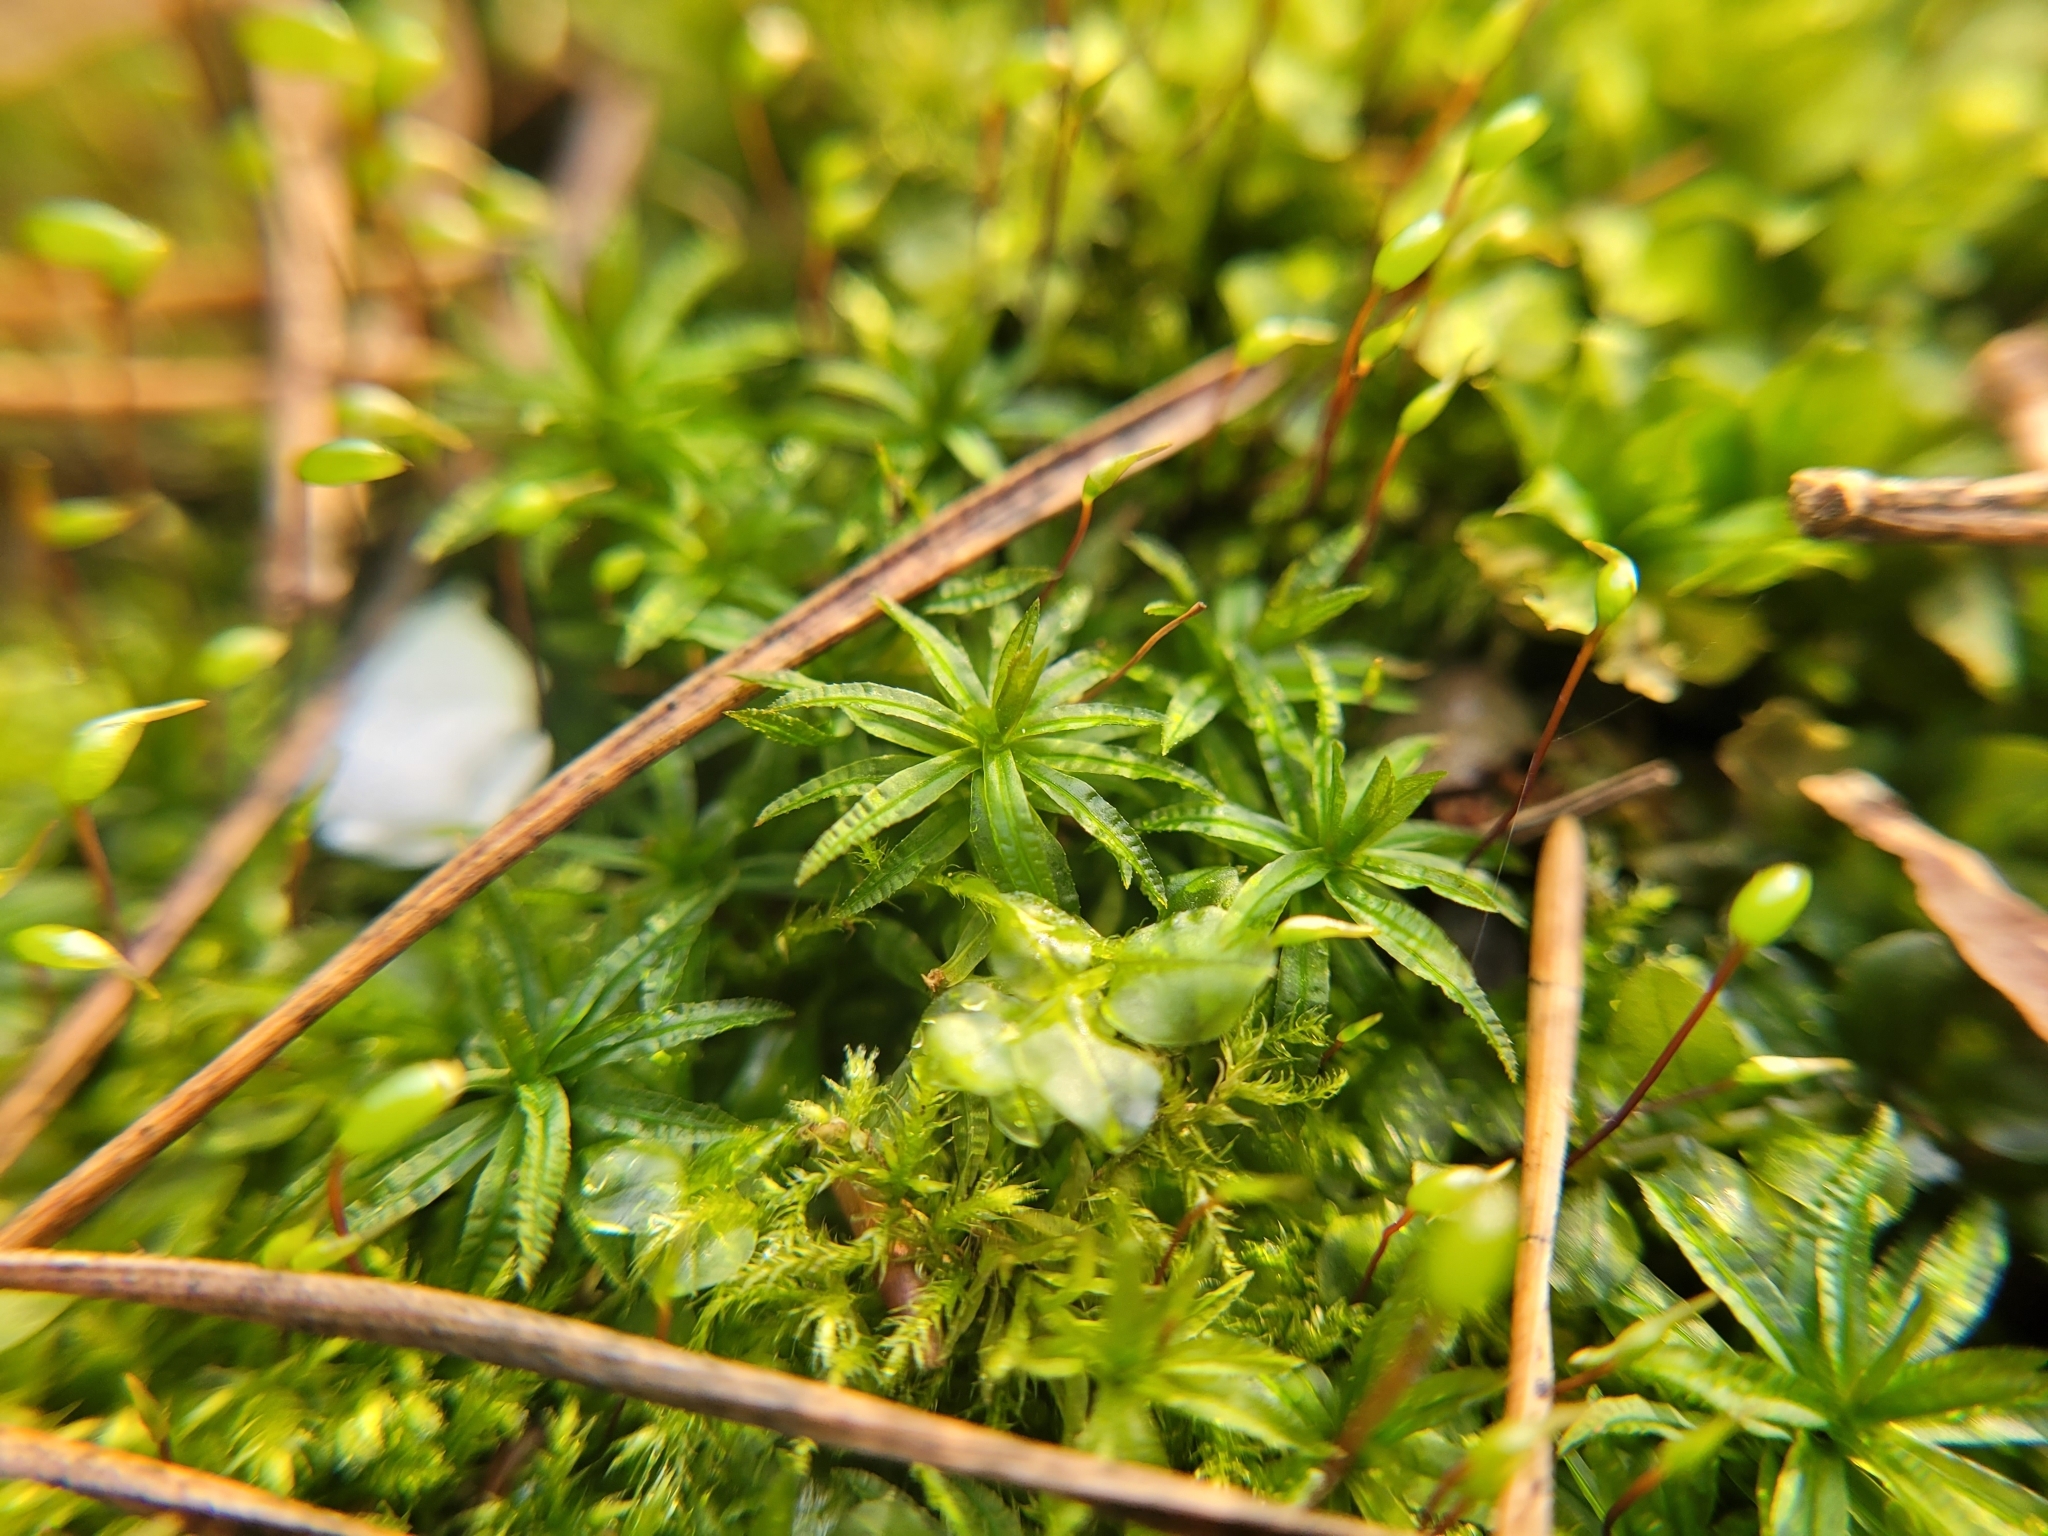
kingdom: Plantae
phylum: Bryophyta
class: Polytrichopsida
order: Polytrichales
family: Polytrichaceae
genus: Atrichum
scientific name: Atrichum undulatum
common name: Common smoothcap
